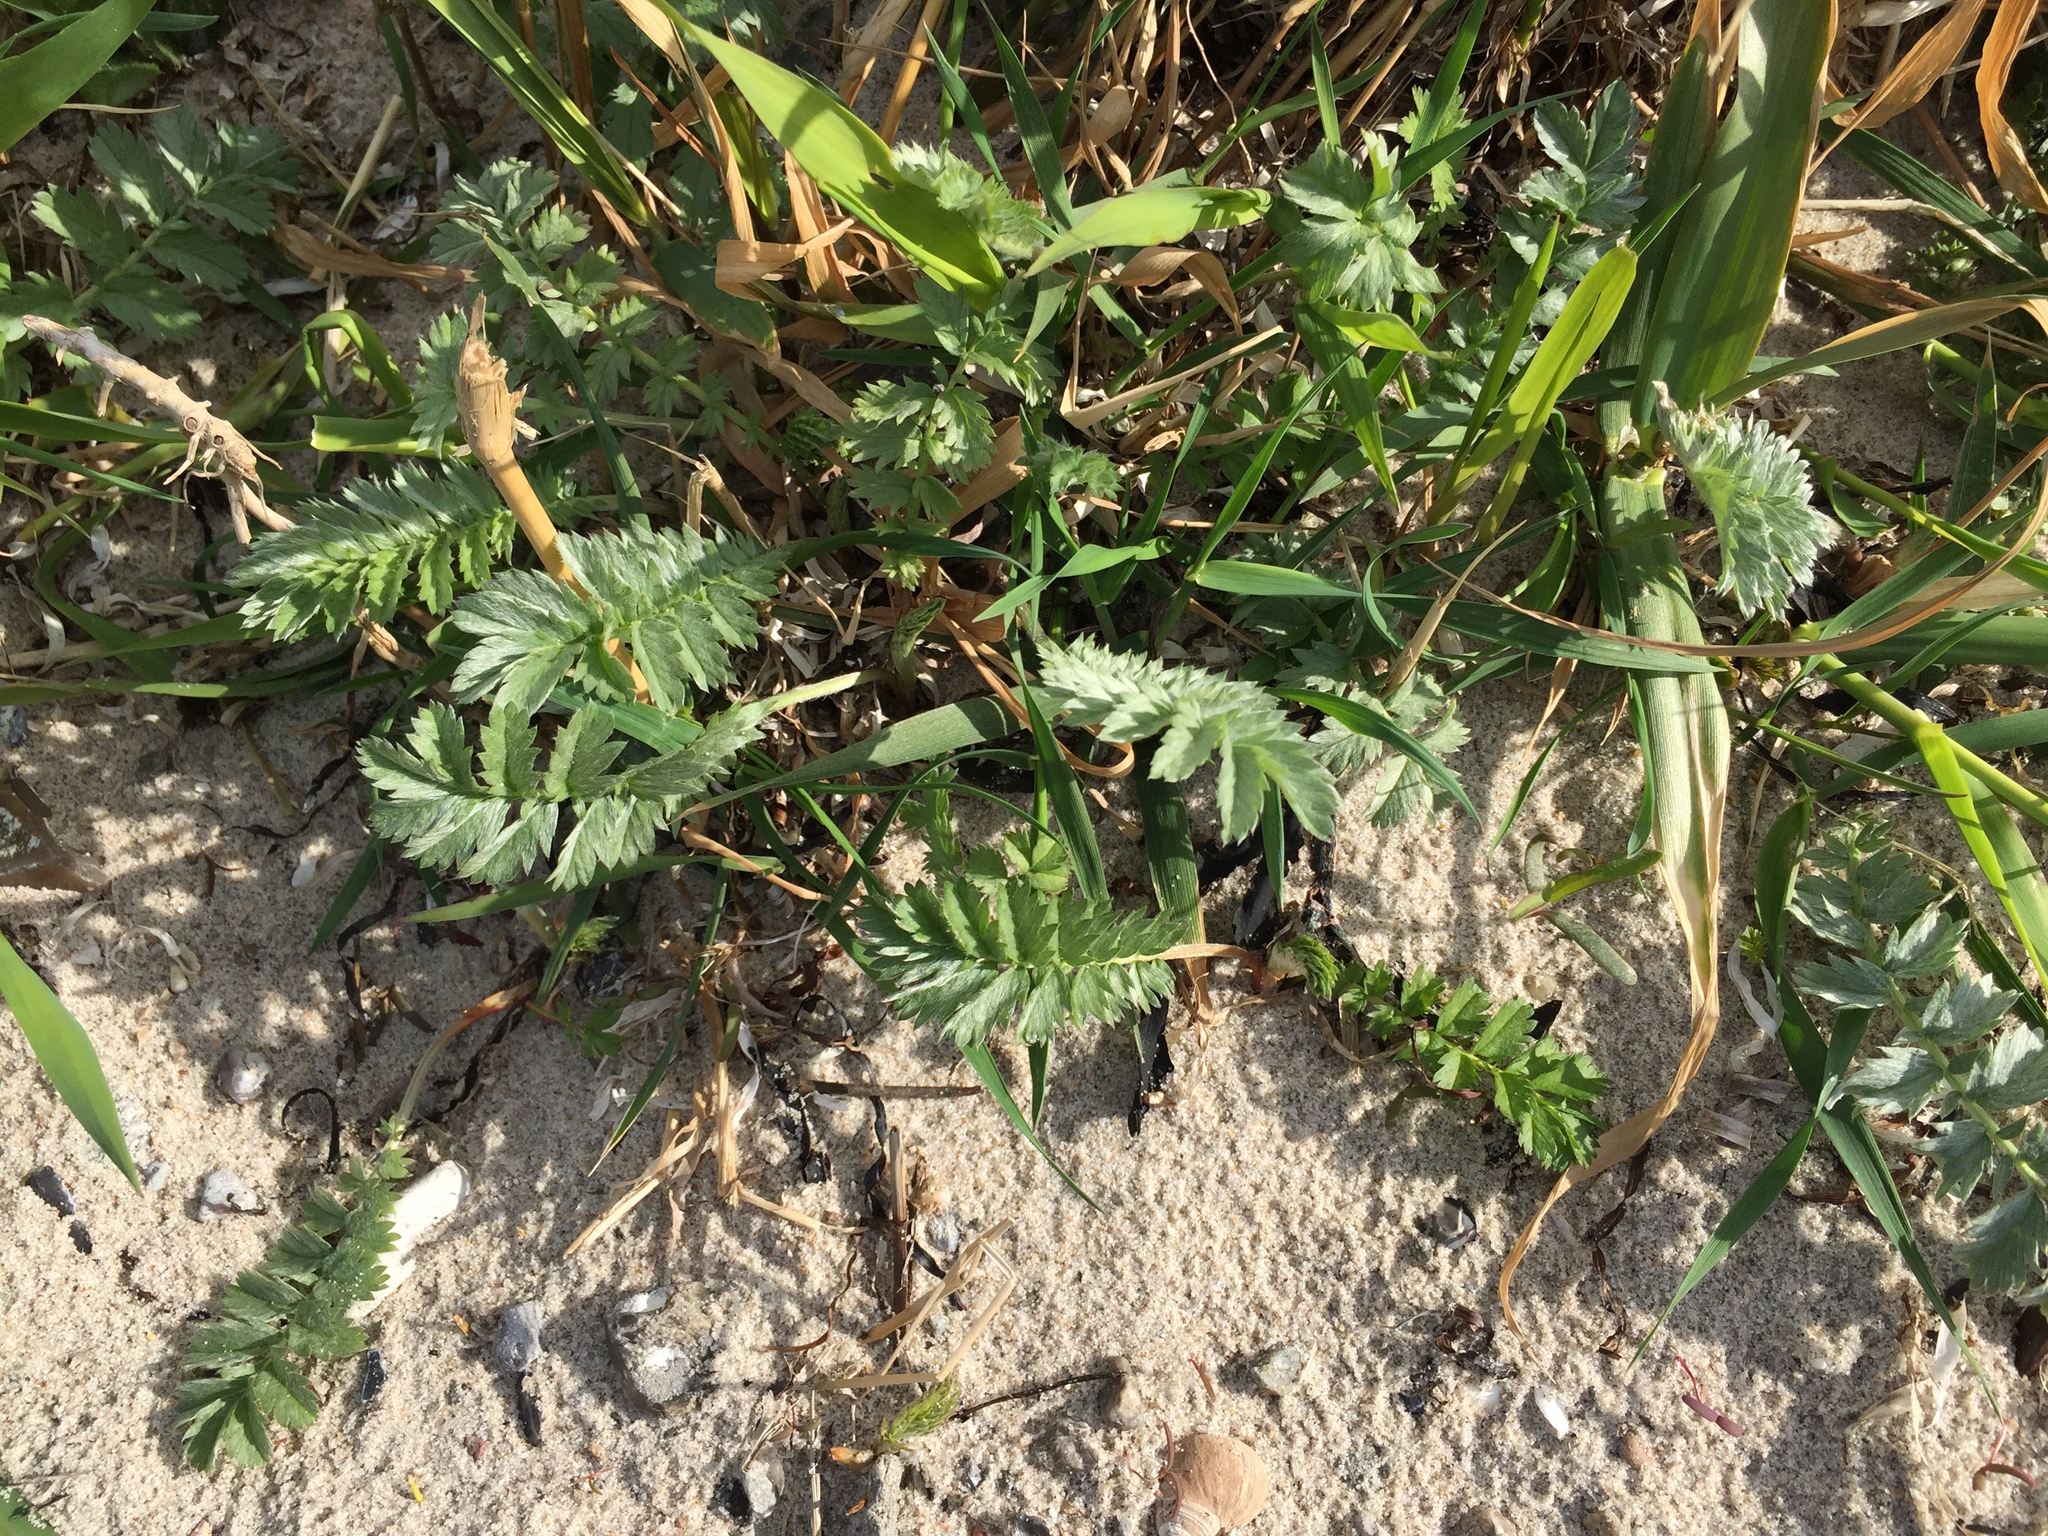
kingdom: Plantae
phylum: Tracheophyta
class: Magnoliopsida
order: Rosales
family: Rosaceae
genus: Argentina
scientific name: Argentina anserina
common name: Common silverweed
